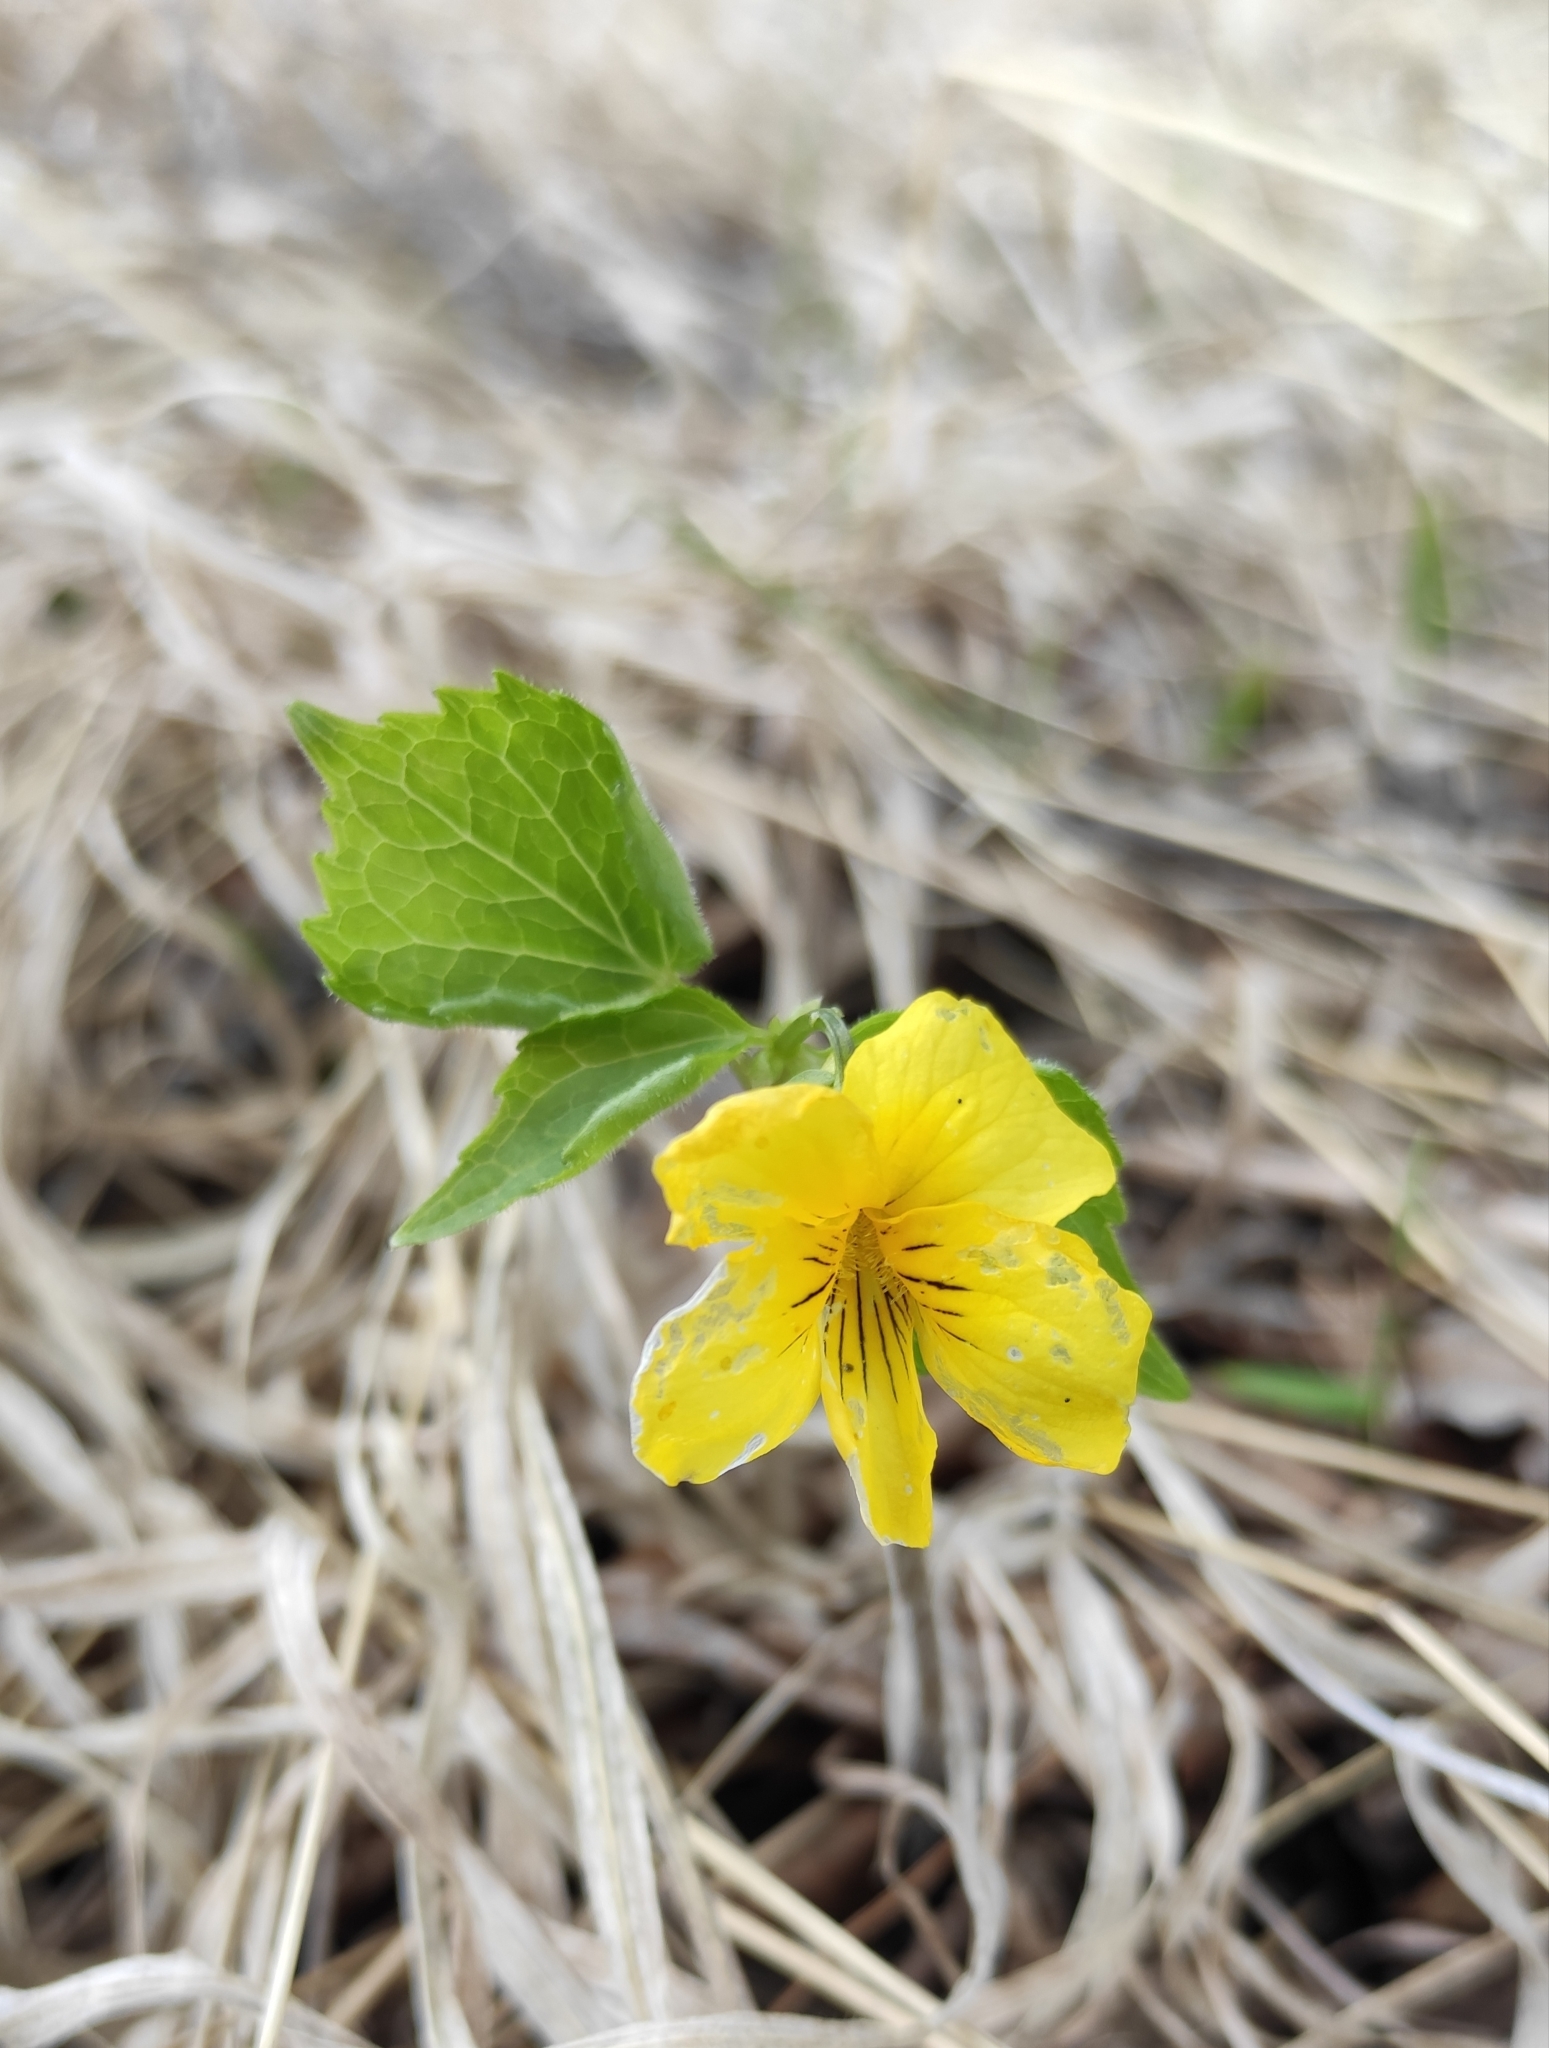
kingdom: Plantae
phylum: Tracheophyta
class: Magnoliopsida
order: Malpighiales
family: Violaceae
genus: Viola
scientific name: Viola uniflora
